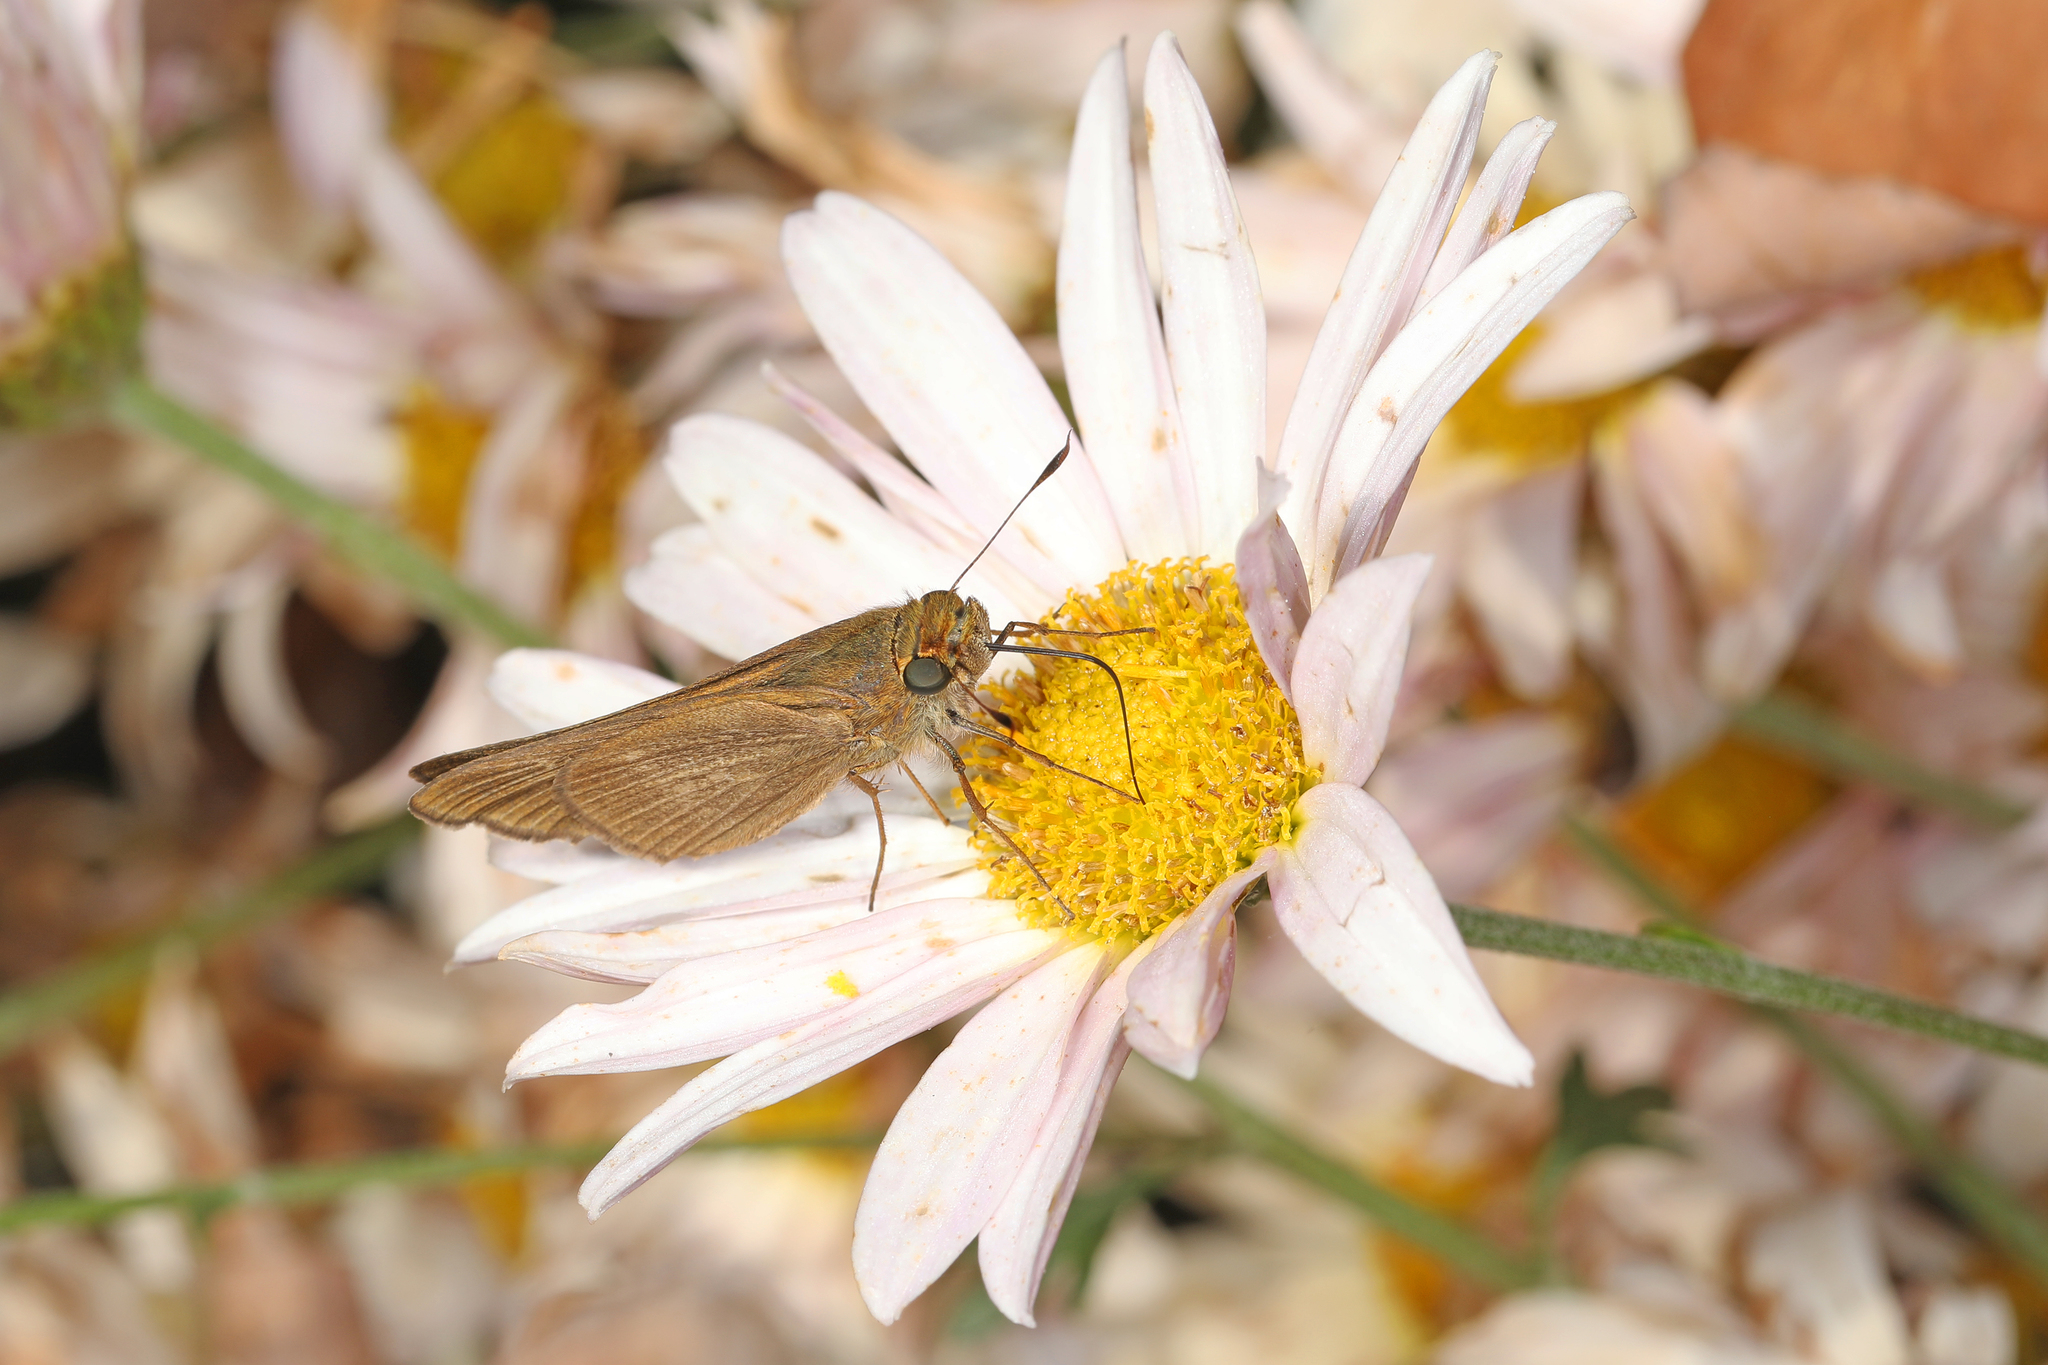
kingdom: Animalia
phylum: Arthropoda
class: Insecta
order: Lepidoptera
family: Hesperiidae
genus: Panoquina
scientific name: Panoquina ocola
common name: Ocola skipper
